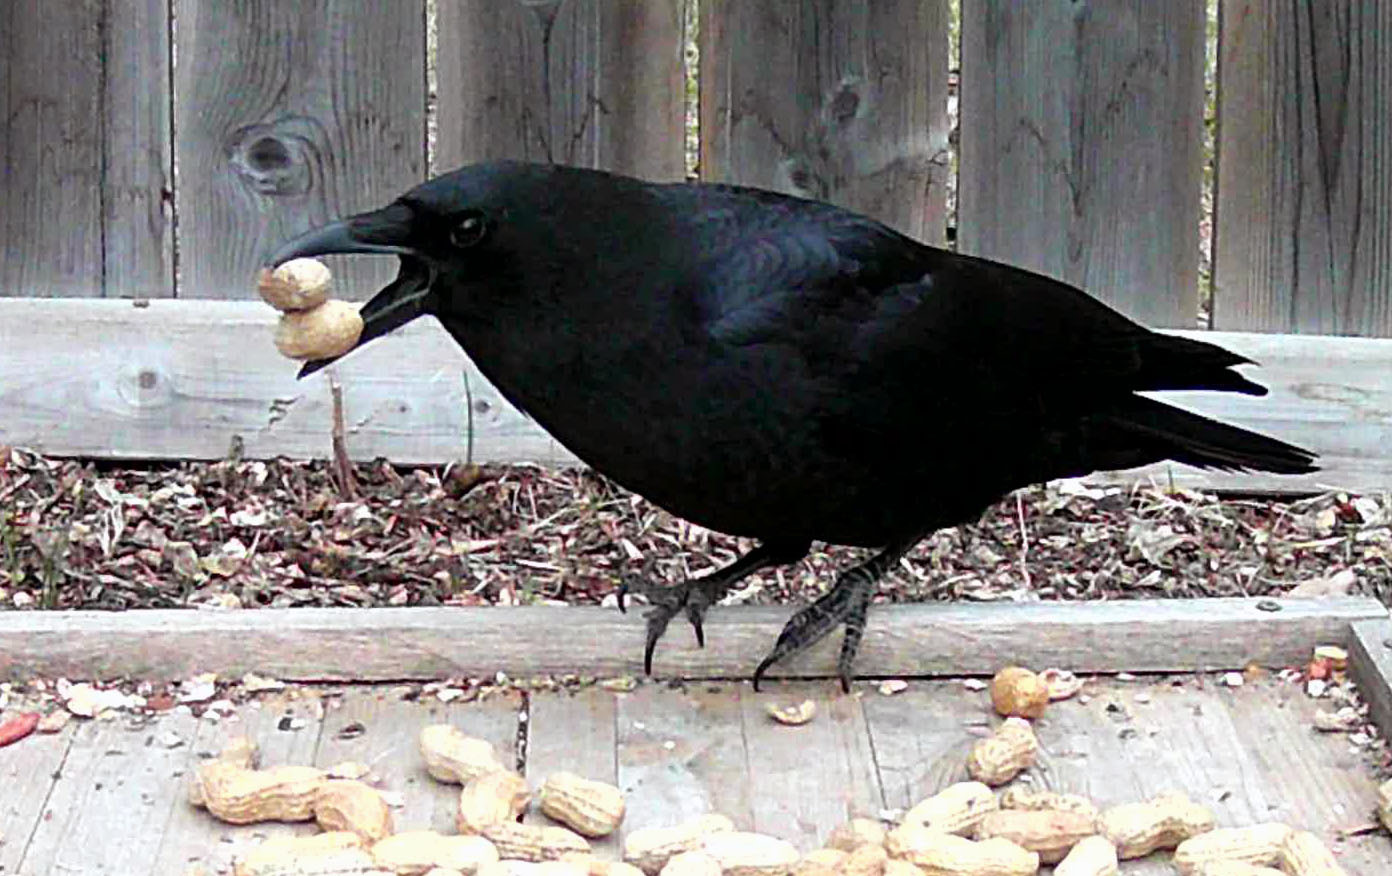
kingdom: Animalia
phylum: Chordata
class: Aves
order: Passeriformes
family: Corvidae
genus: Corvus
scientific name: Corvus brachyrhynchos
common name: American crow
